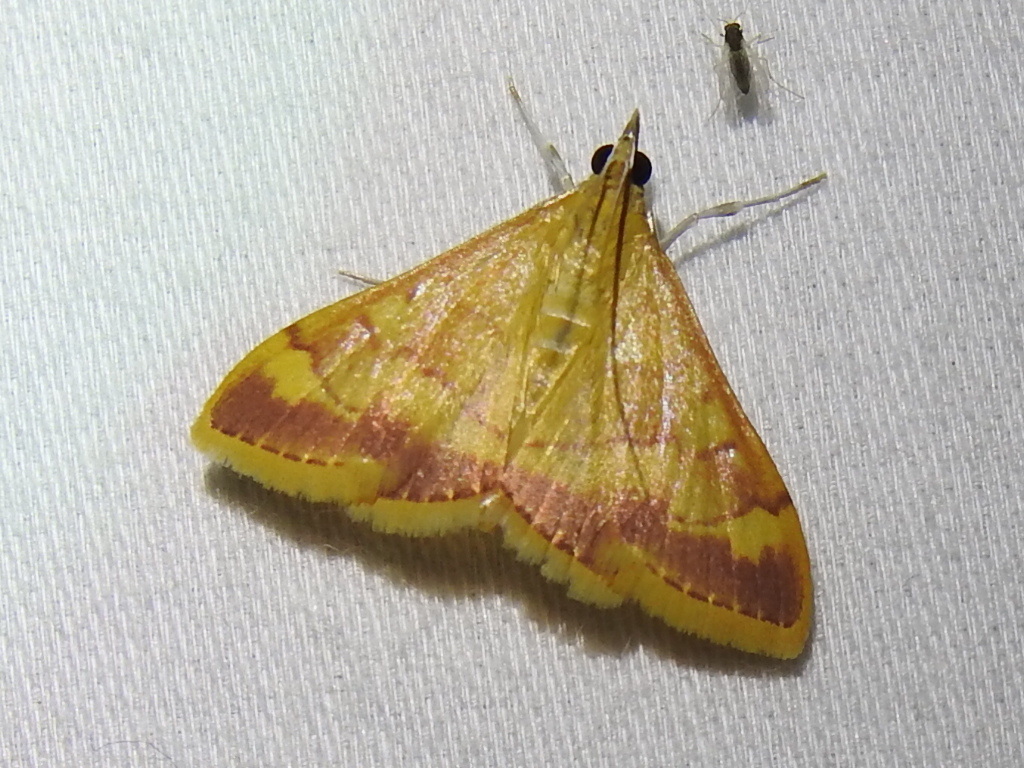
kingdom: Animalia
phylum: Arthropoda
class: Insecta
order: Lepidoptera
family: Crambidae
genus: Pyrausta
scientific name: Pyrausta pseudonythesalis
